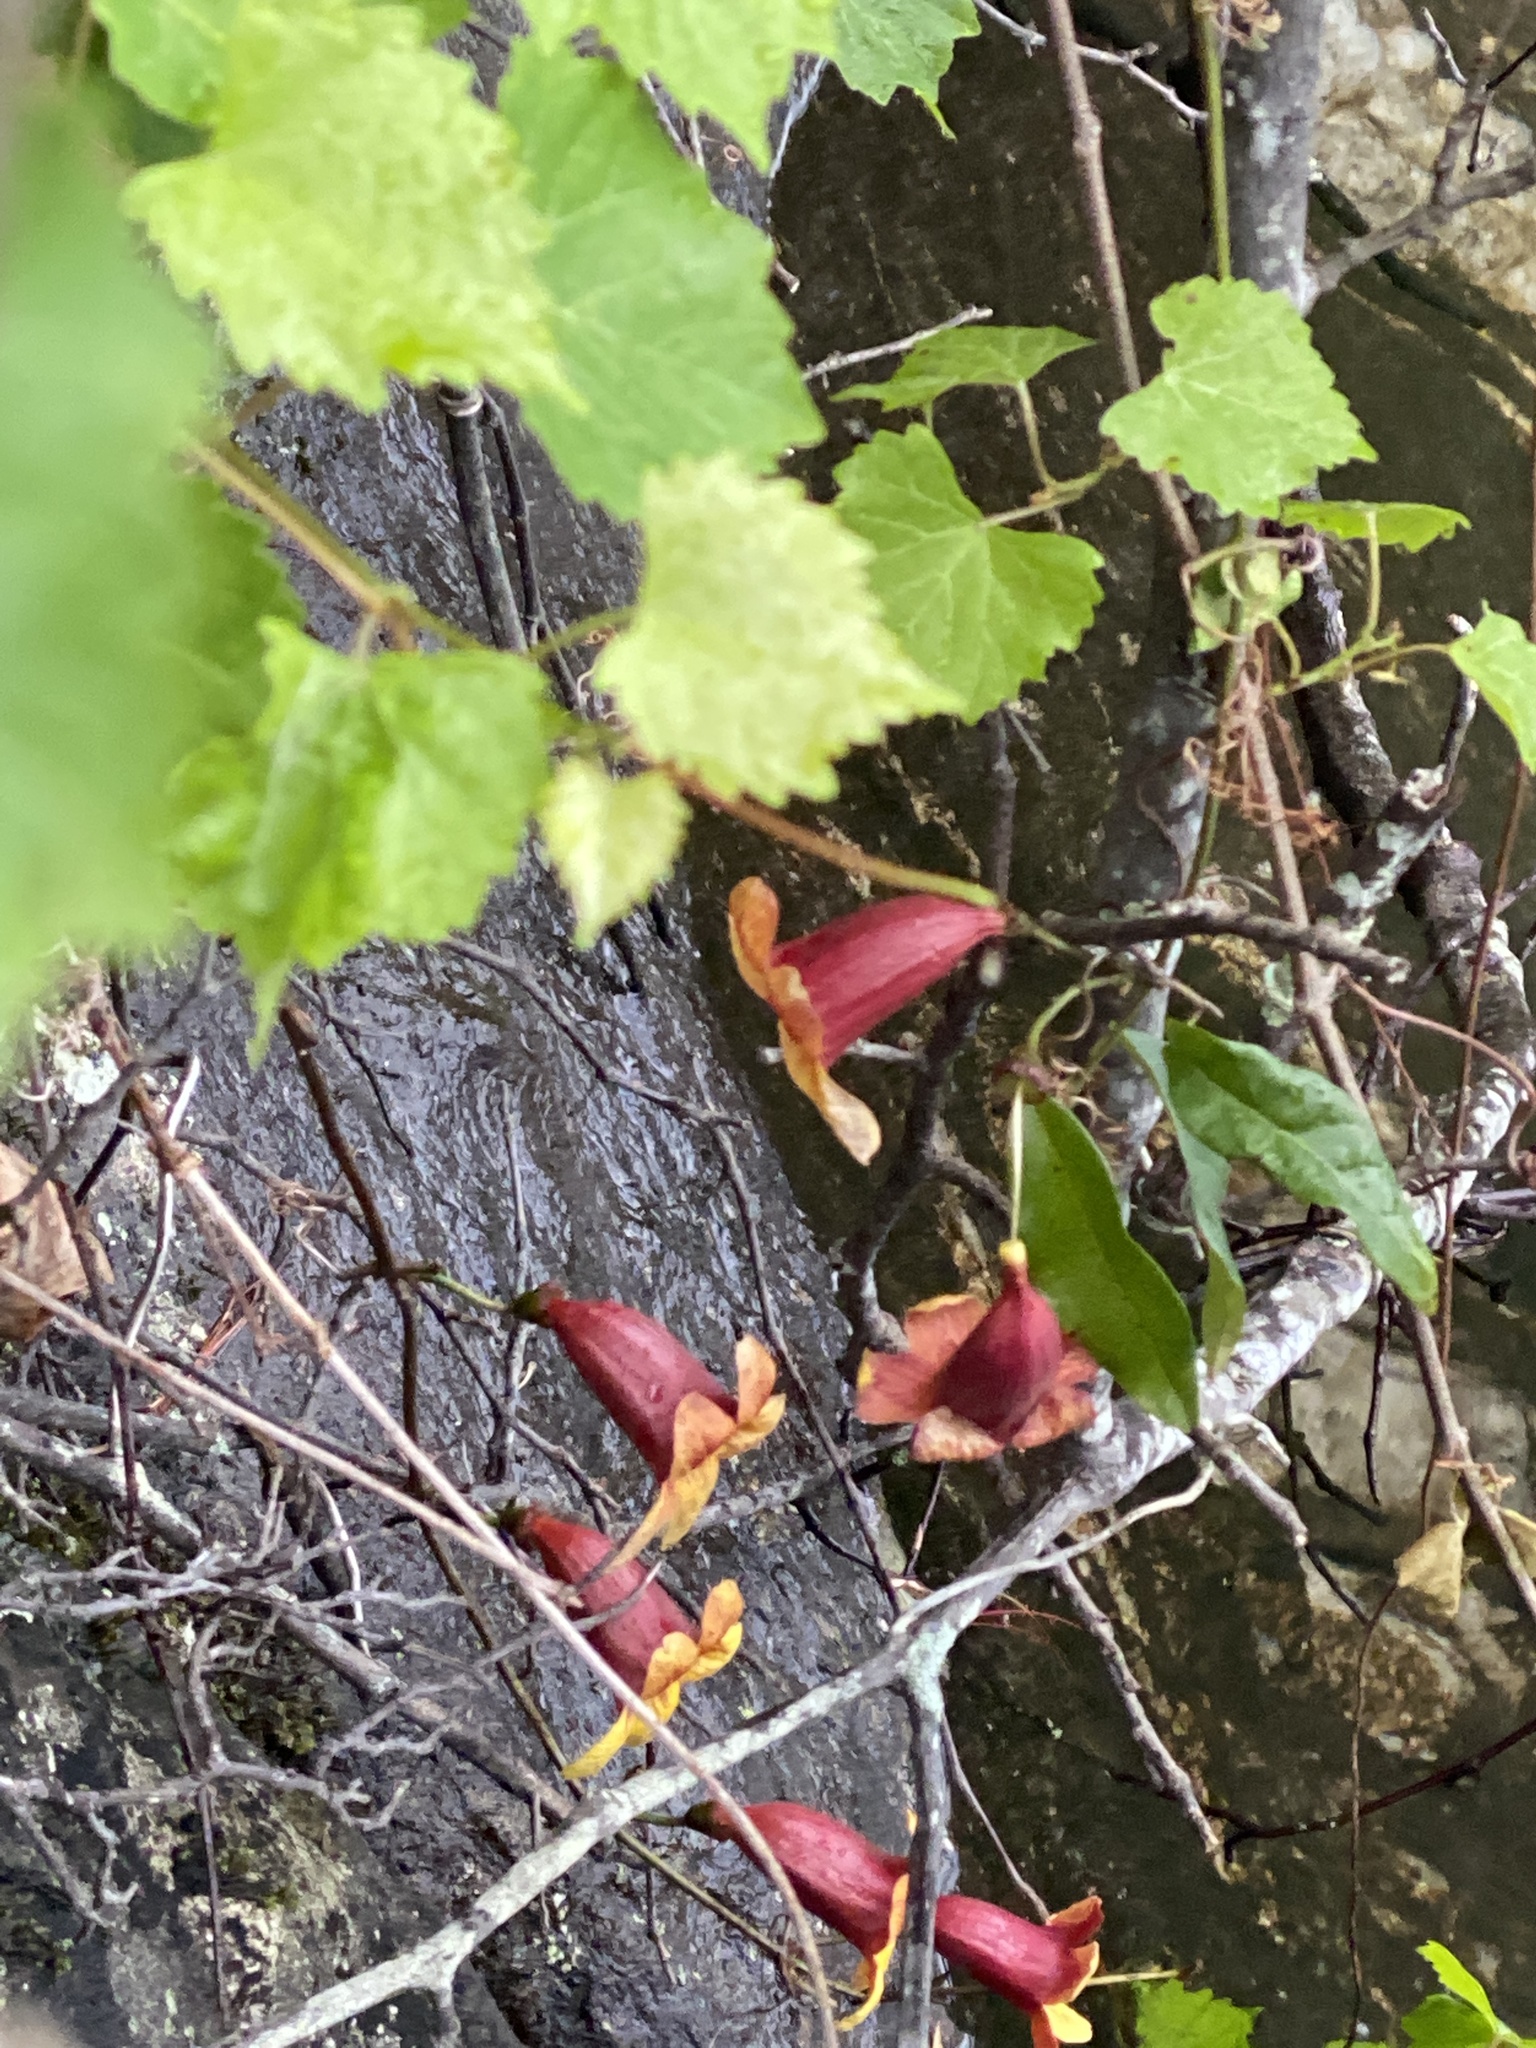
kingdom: Plantae
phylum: Tracheophyta
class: Magnoliopsida
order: Lamiales
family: Bignoniaceae
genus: Bignonia
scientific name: Bignonia capreolata
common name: Crossvine
